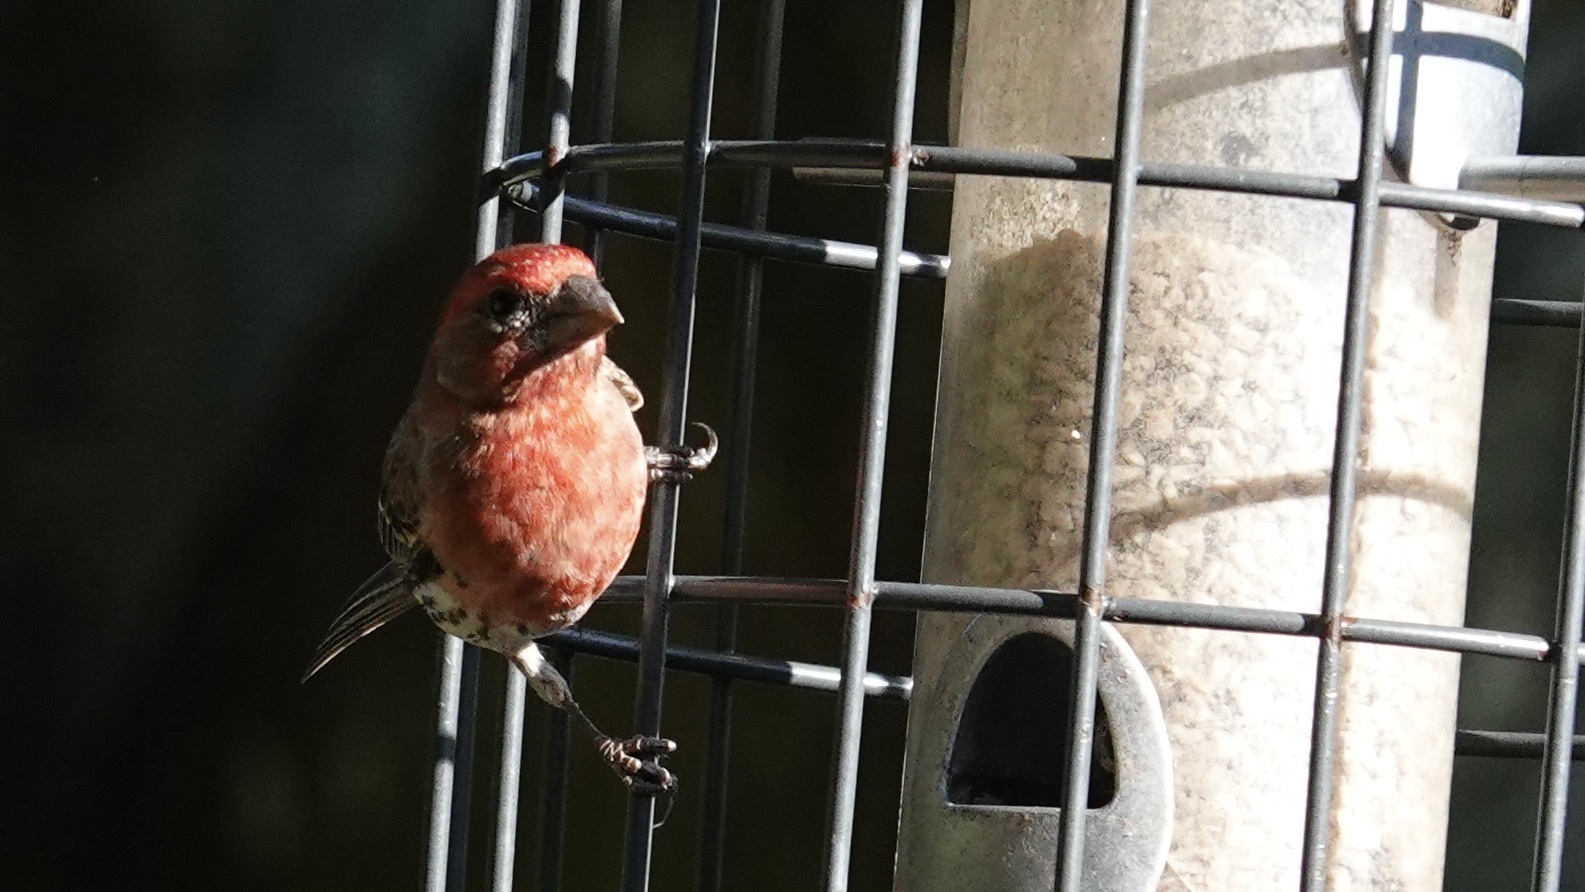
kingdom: Animalia
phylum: Chordata
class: Aves
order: Passeriformes
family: Fringillidae
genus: Haemorhous
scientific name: Haemorhous mexicanus
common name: House finch
